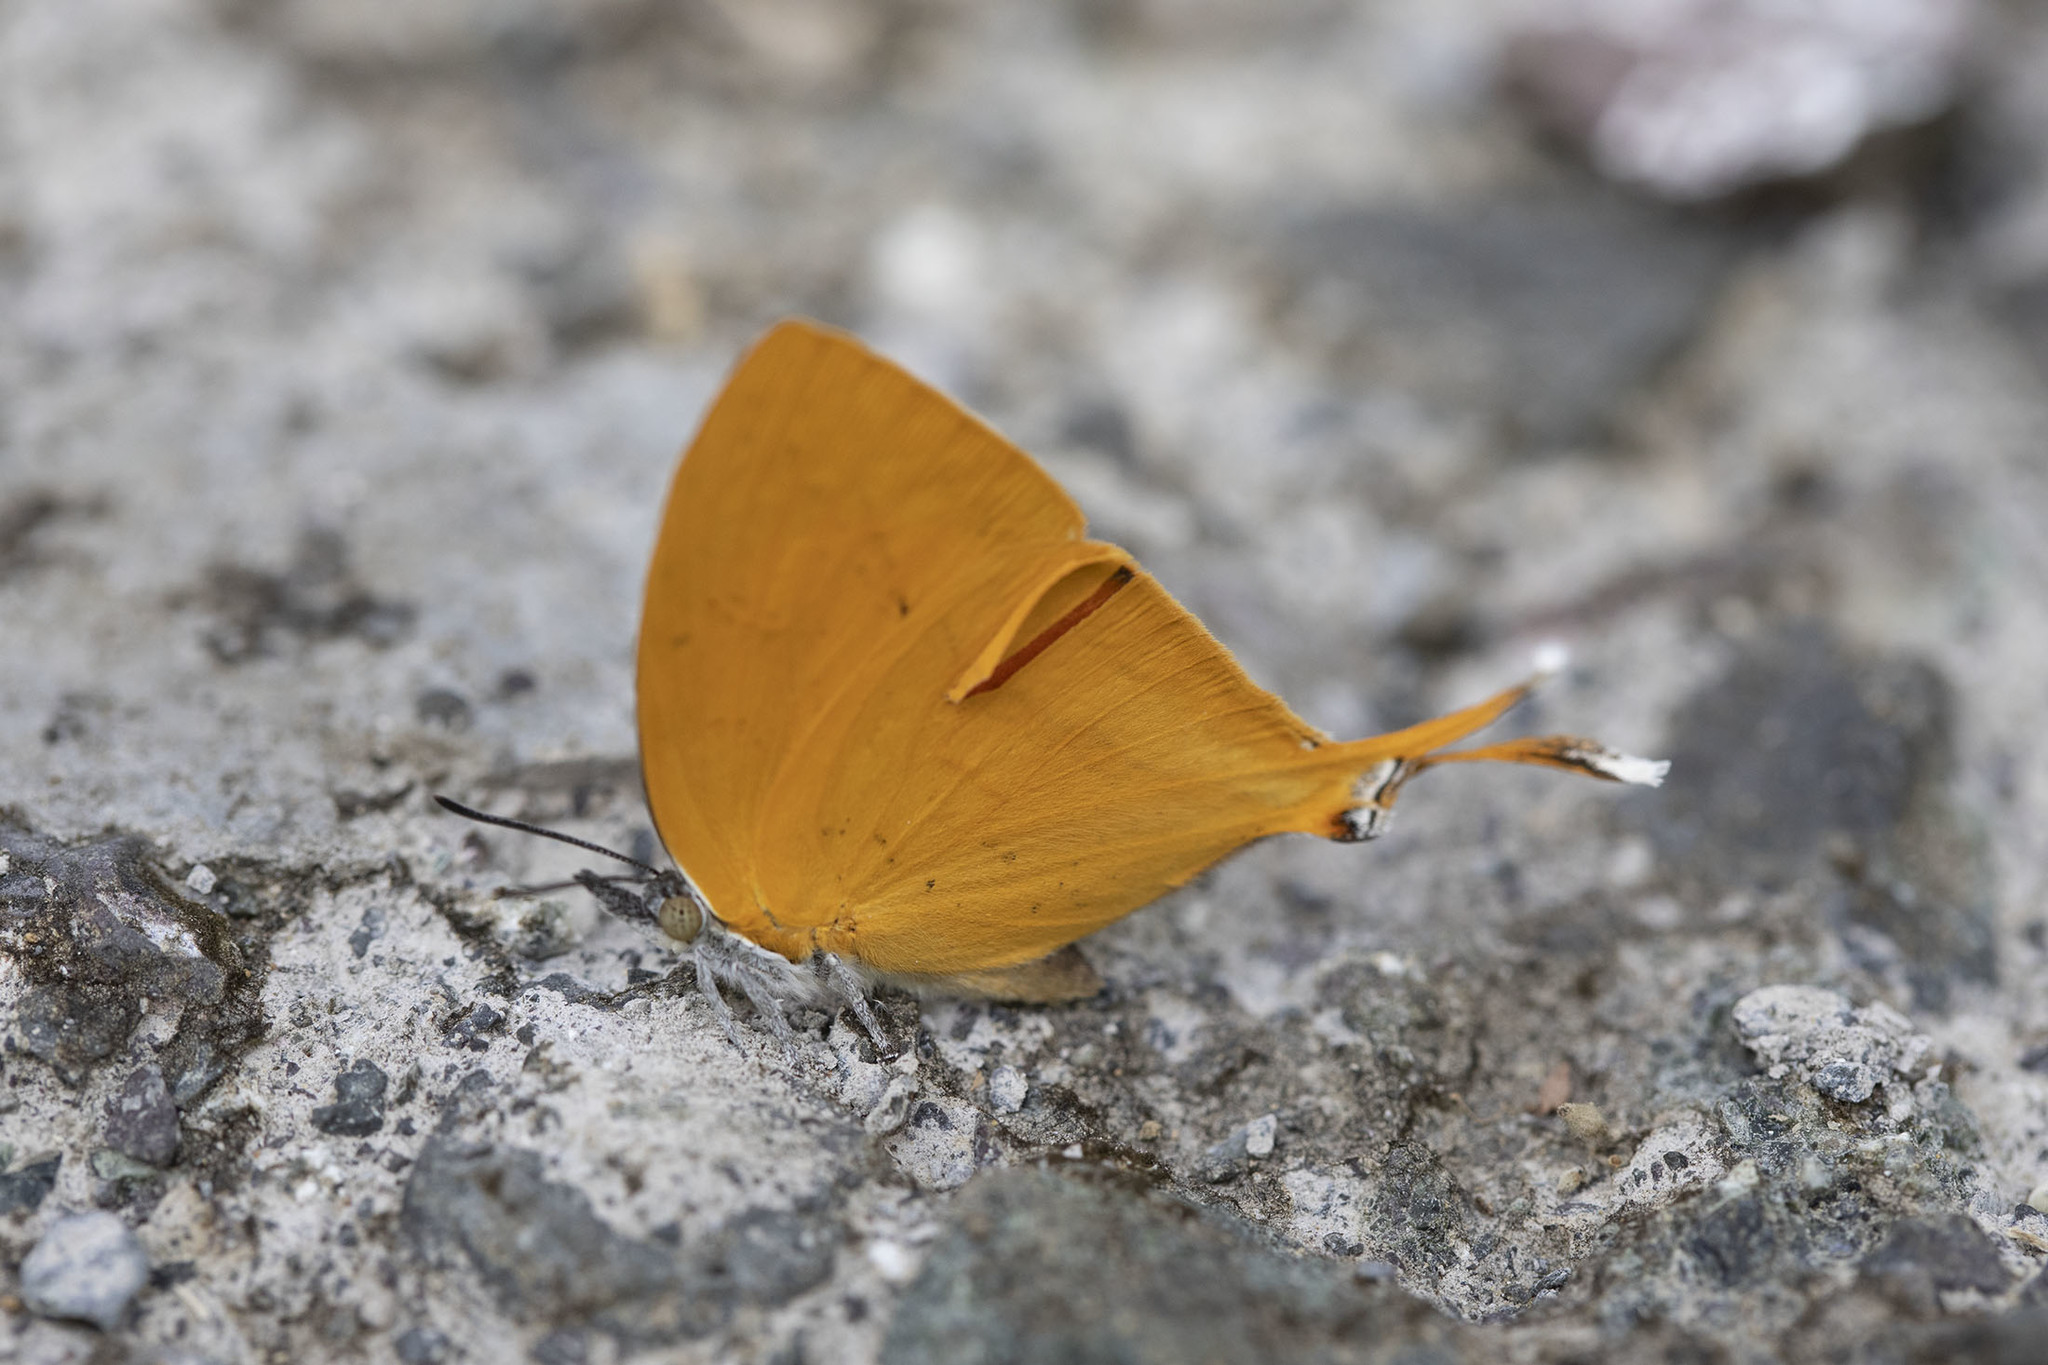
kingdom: Animalia
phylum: Arthropoda
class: Insecta
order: Lepidoptera
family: Lycaenidae
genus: Loxura
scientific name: Loxura atymnus
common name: Common yamfly
